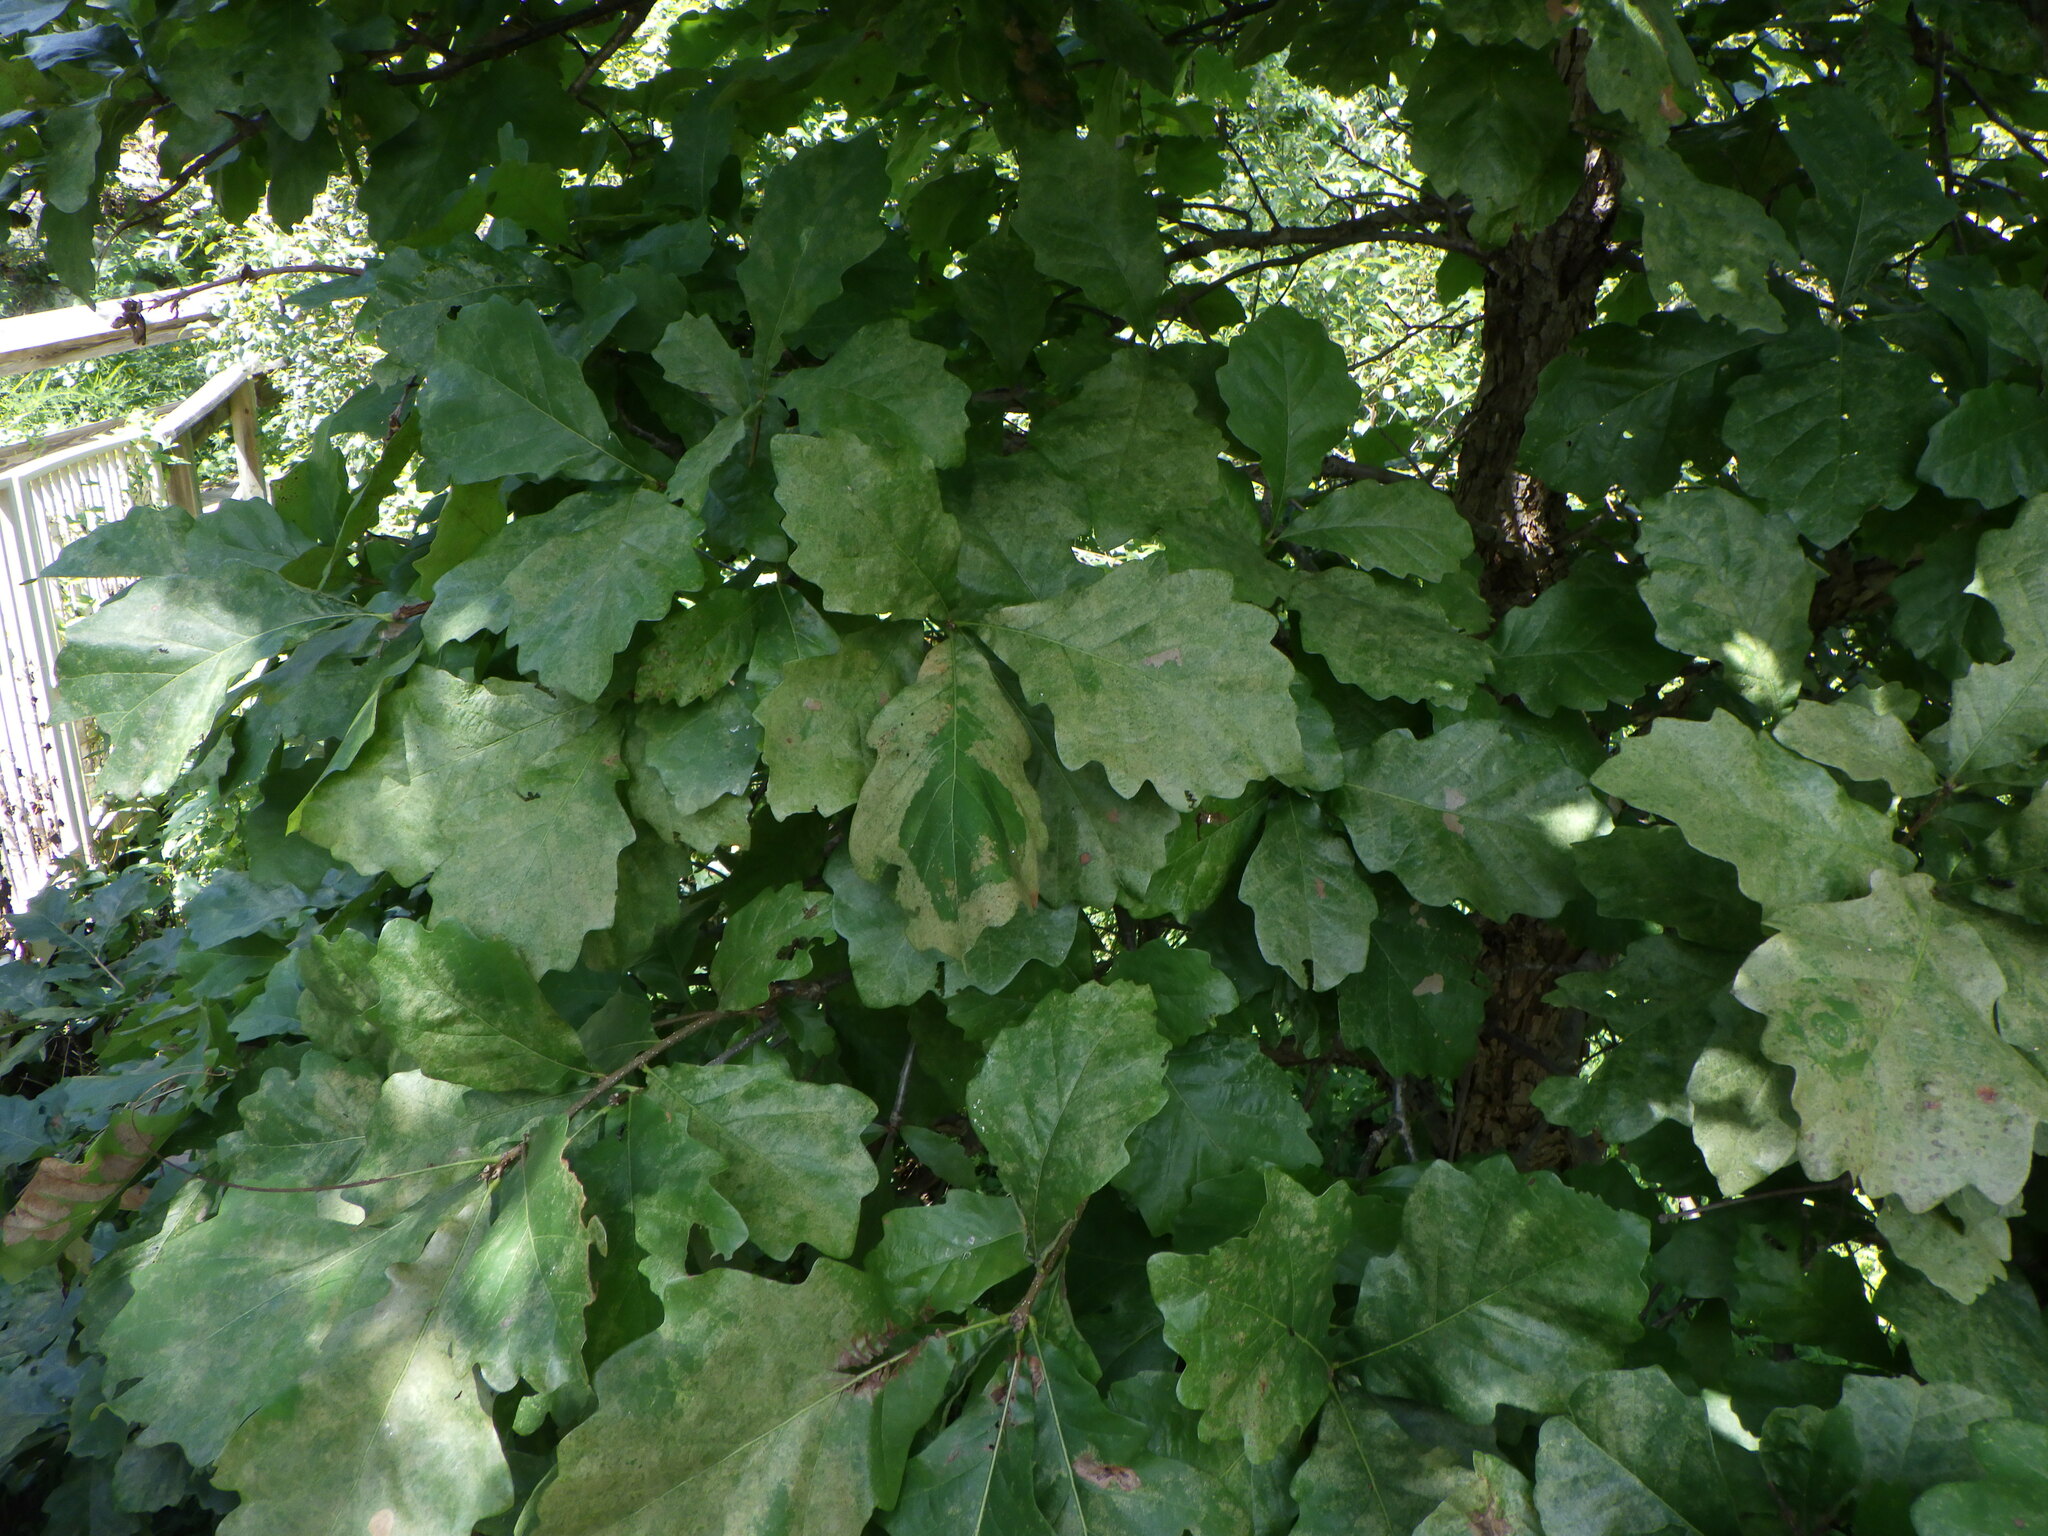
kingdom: Plantae
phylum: Tracheophyta
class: Magnoliopsida
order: Fagales
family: Fagaceae
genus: Quercus
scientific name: Quercus bicolor
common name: Swamp white oak
